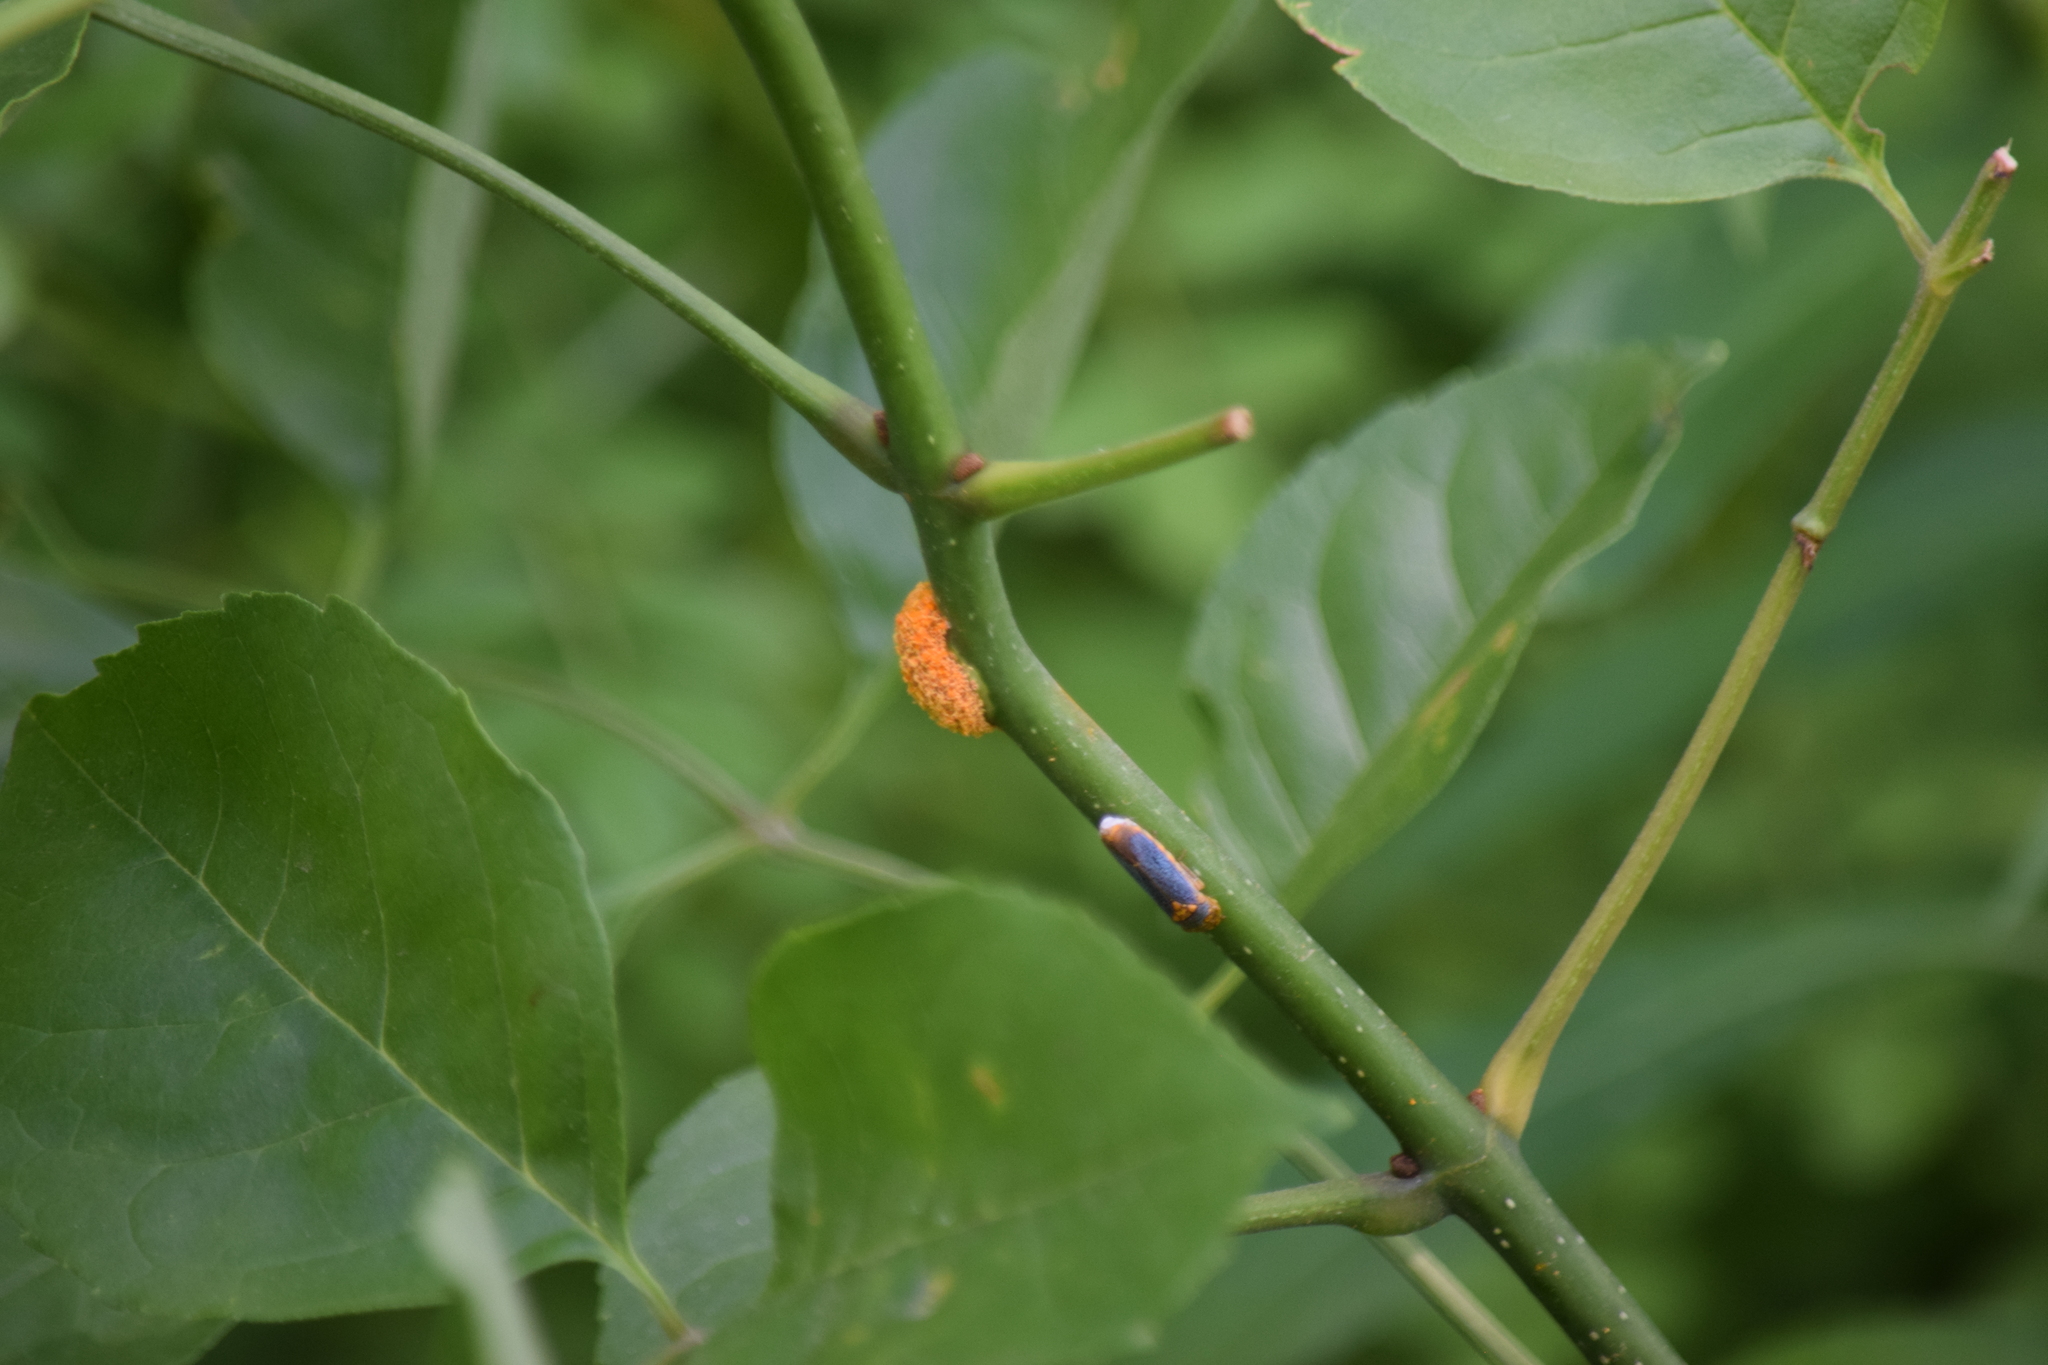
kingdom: Animalia
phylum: Arthropoda
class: Insecta
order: Hemiptera
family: Cicadellidae
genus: Oncometopia
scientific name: Oncometopia orbona
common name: Broad-headed sharpshooter
